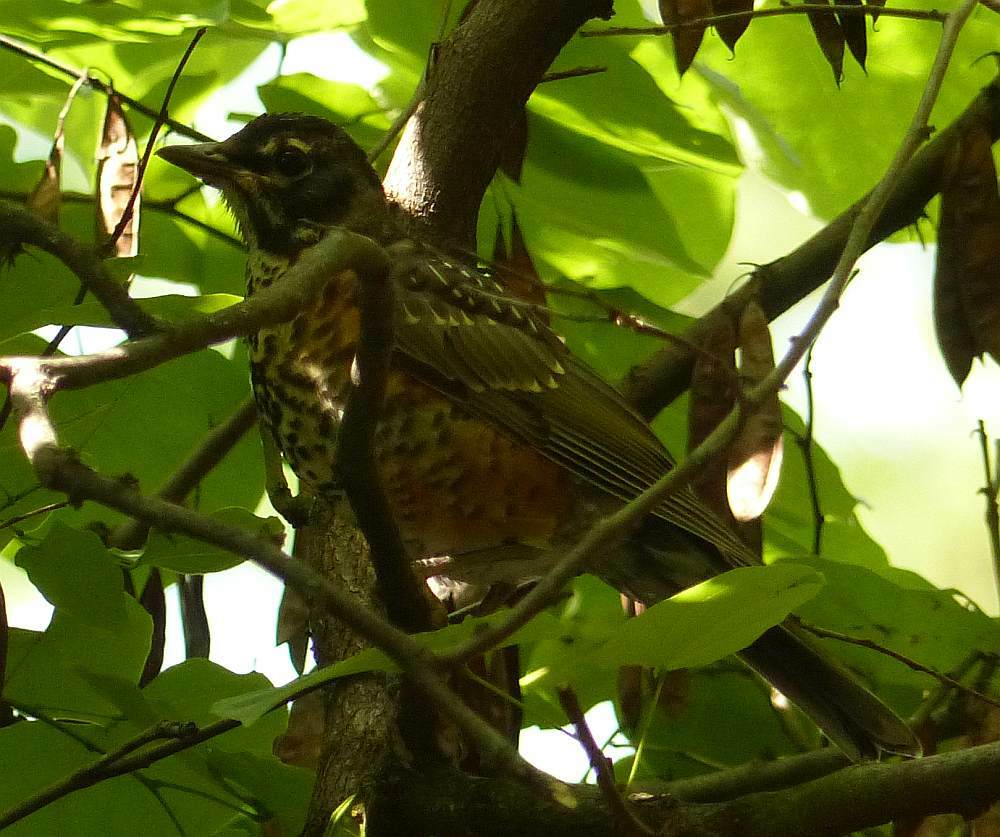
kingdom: Animalia
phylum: Chordata
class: Aves
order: Passeriformes
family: Turdidae
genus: Turdus
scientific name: Turdus migratorius
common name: American robin
